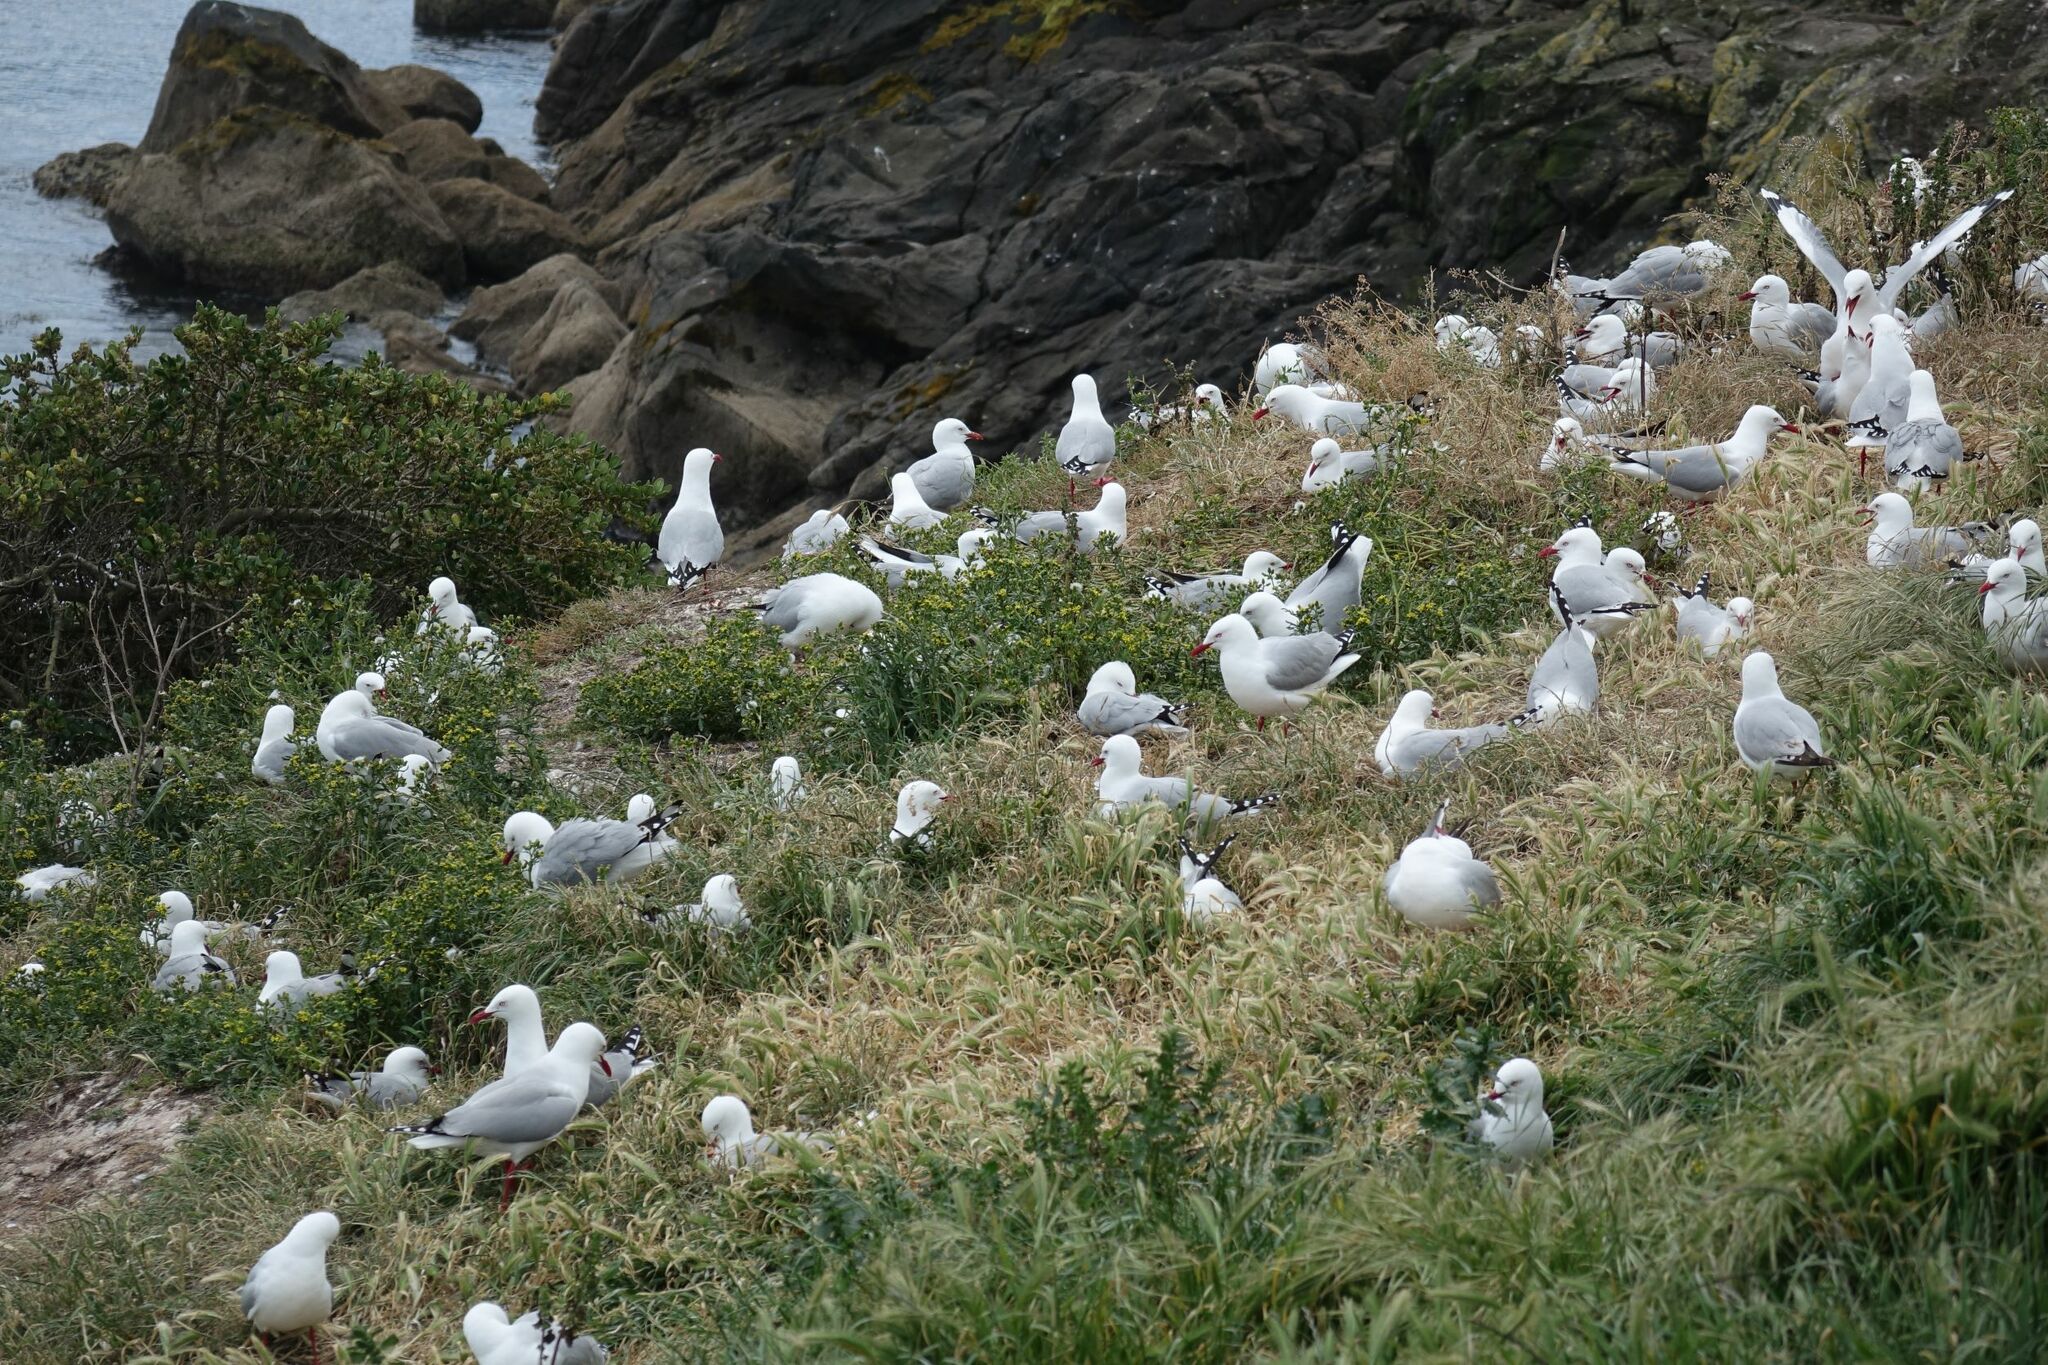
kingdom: Animalia
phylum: Chordata
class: Aves
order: Charadriiformes
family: Laridae
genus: Chroicocephalus
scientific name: Chroicocephalus novaehollandiae
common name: Silver gull
